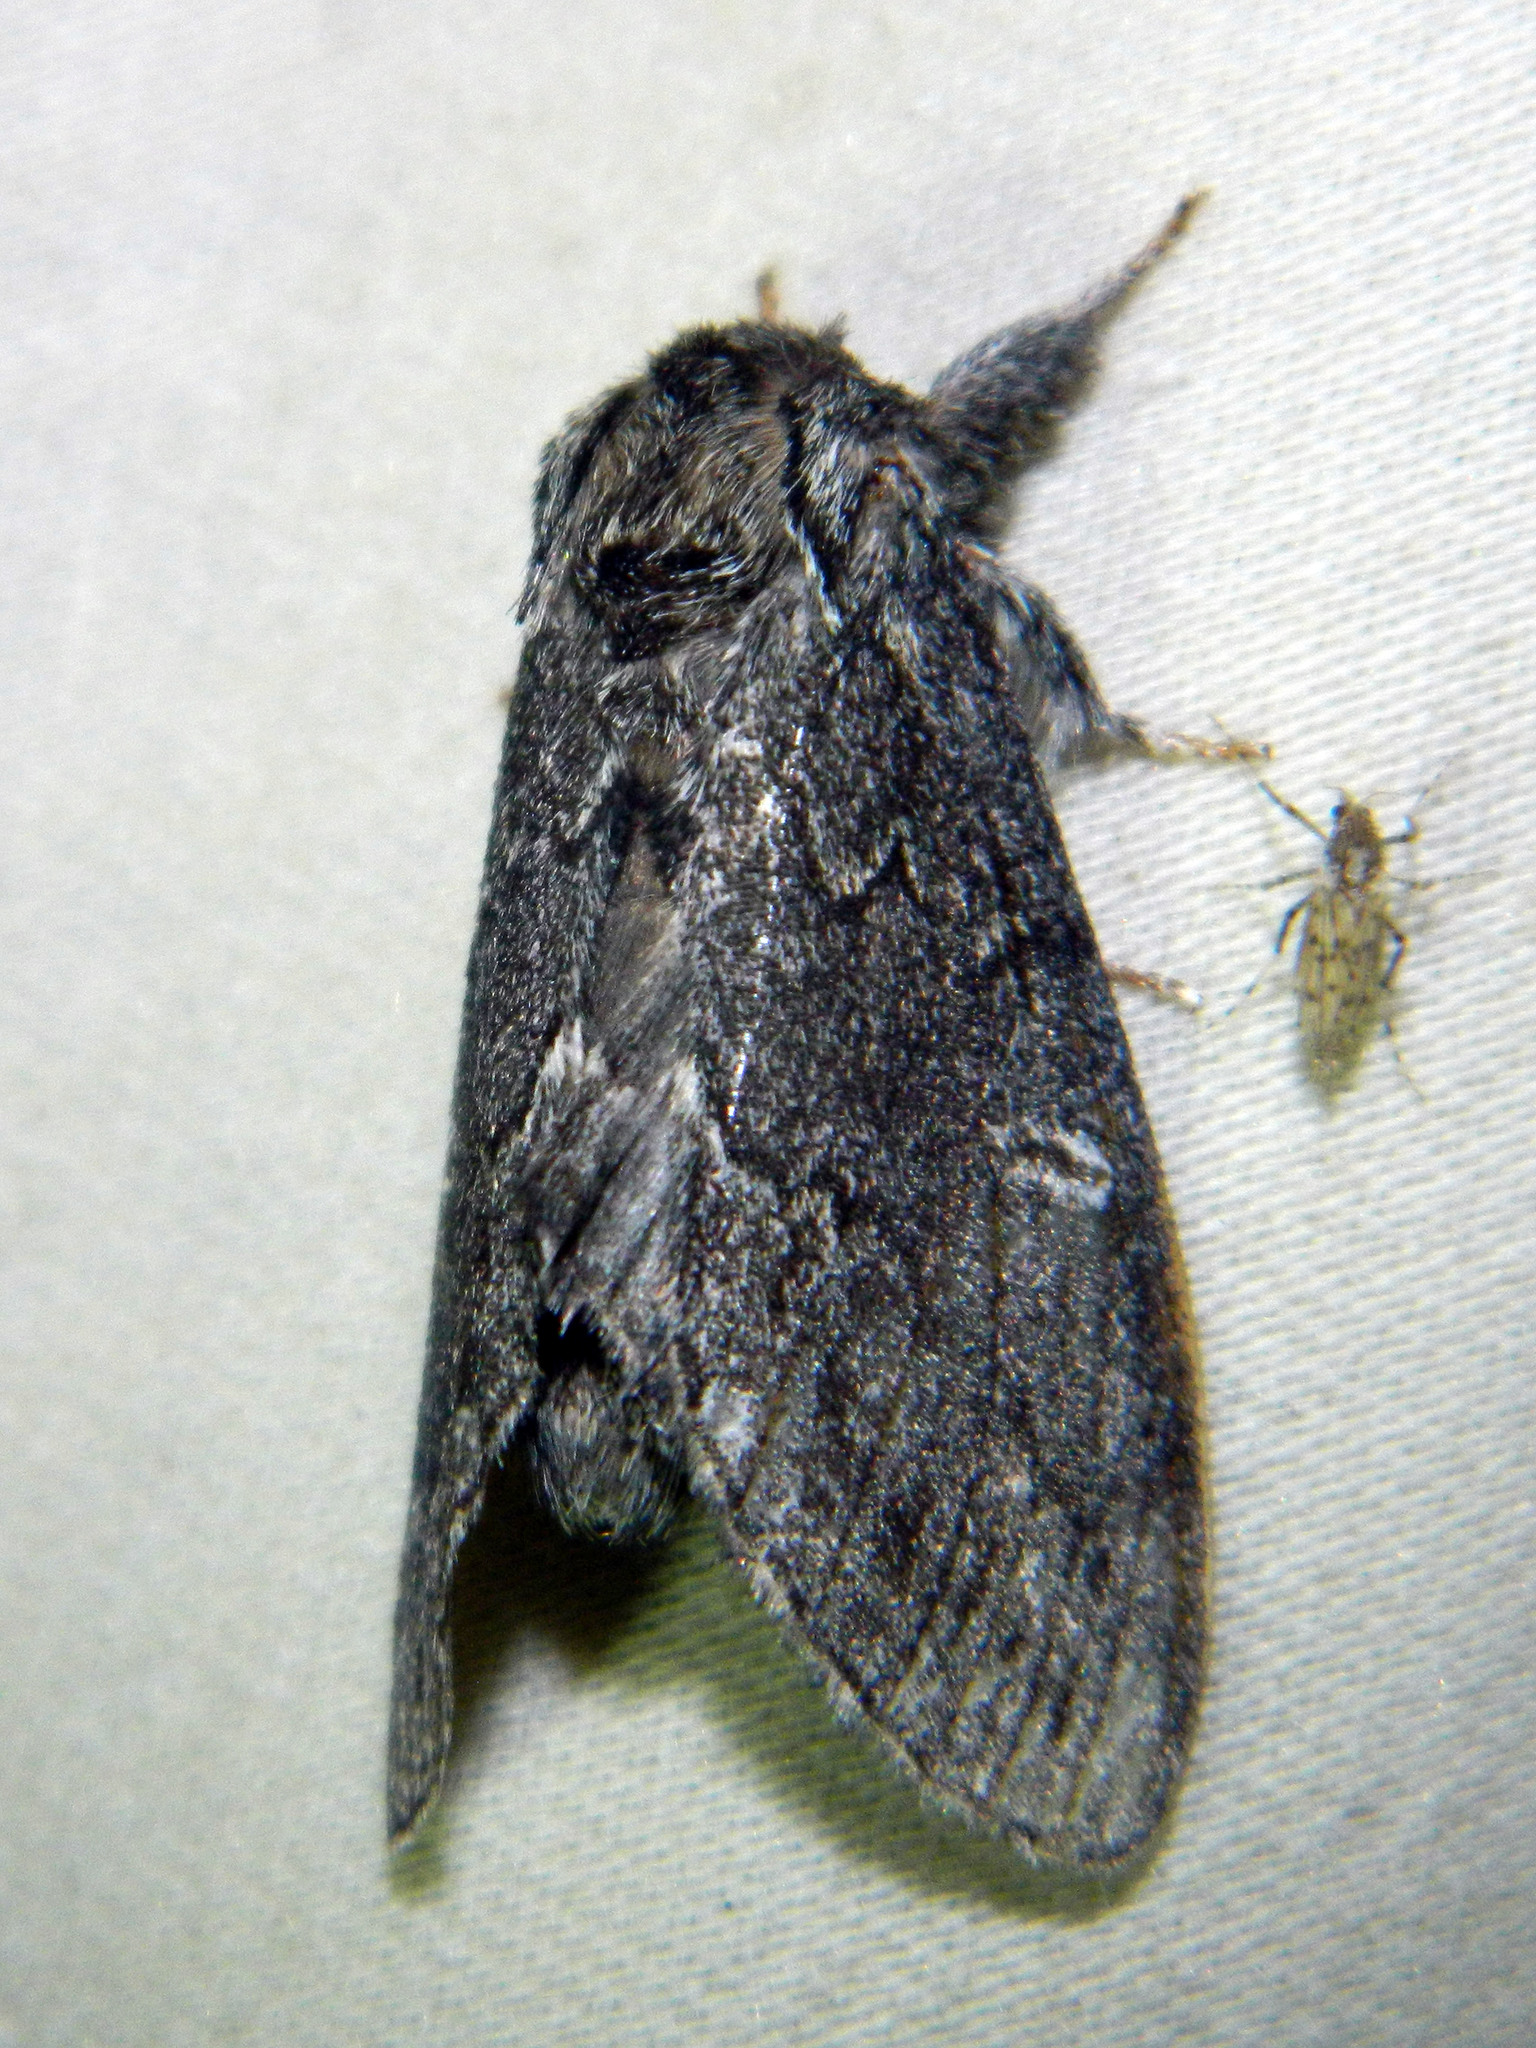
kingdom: Animalia
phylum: Arthropoda
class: Insecta
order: Lepidoptera
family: Notodontidae
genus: Notodonta
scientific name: Notodonta torva
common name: Large dark prominent
